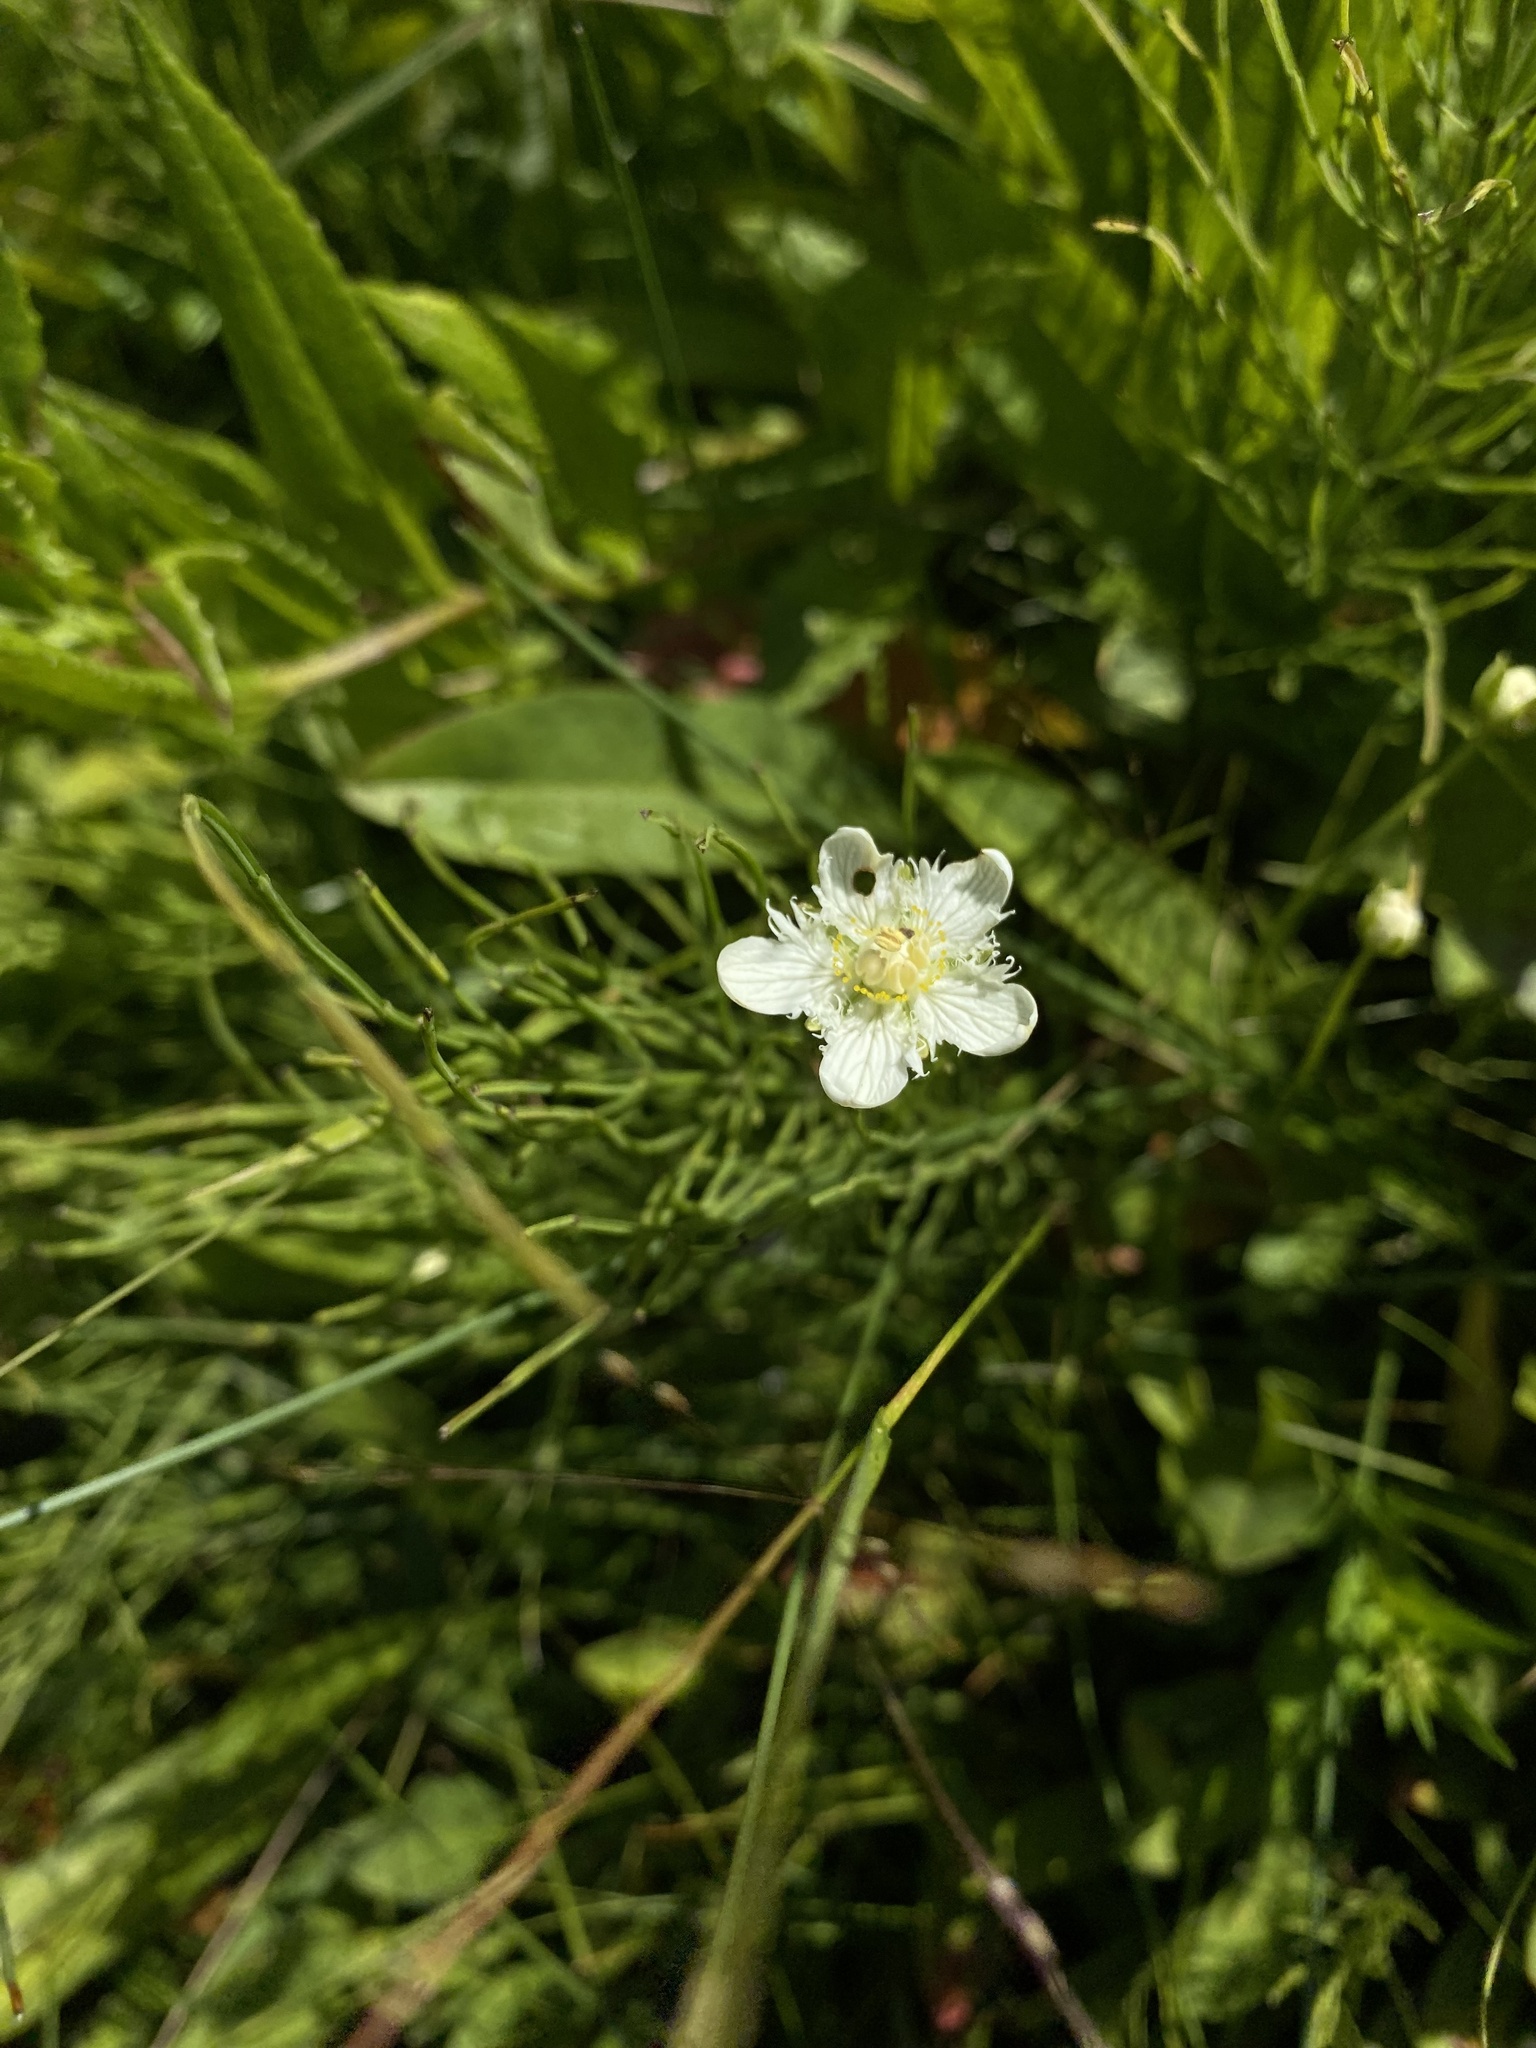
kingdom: Plantae
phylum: Tracheophyta
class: Magnoliopsida
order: Celastrales
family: Parnassiaceae
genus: Parnassia
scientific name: Parnassia cirrata
